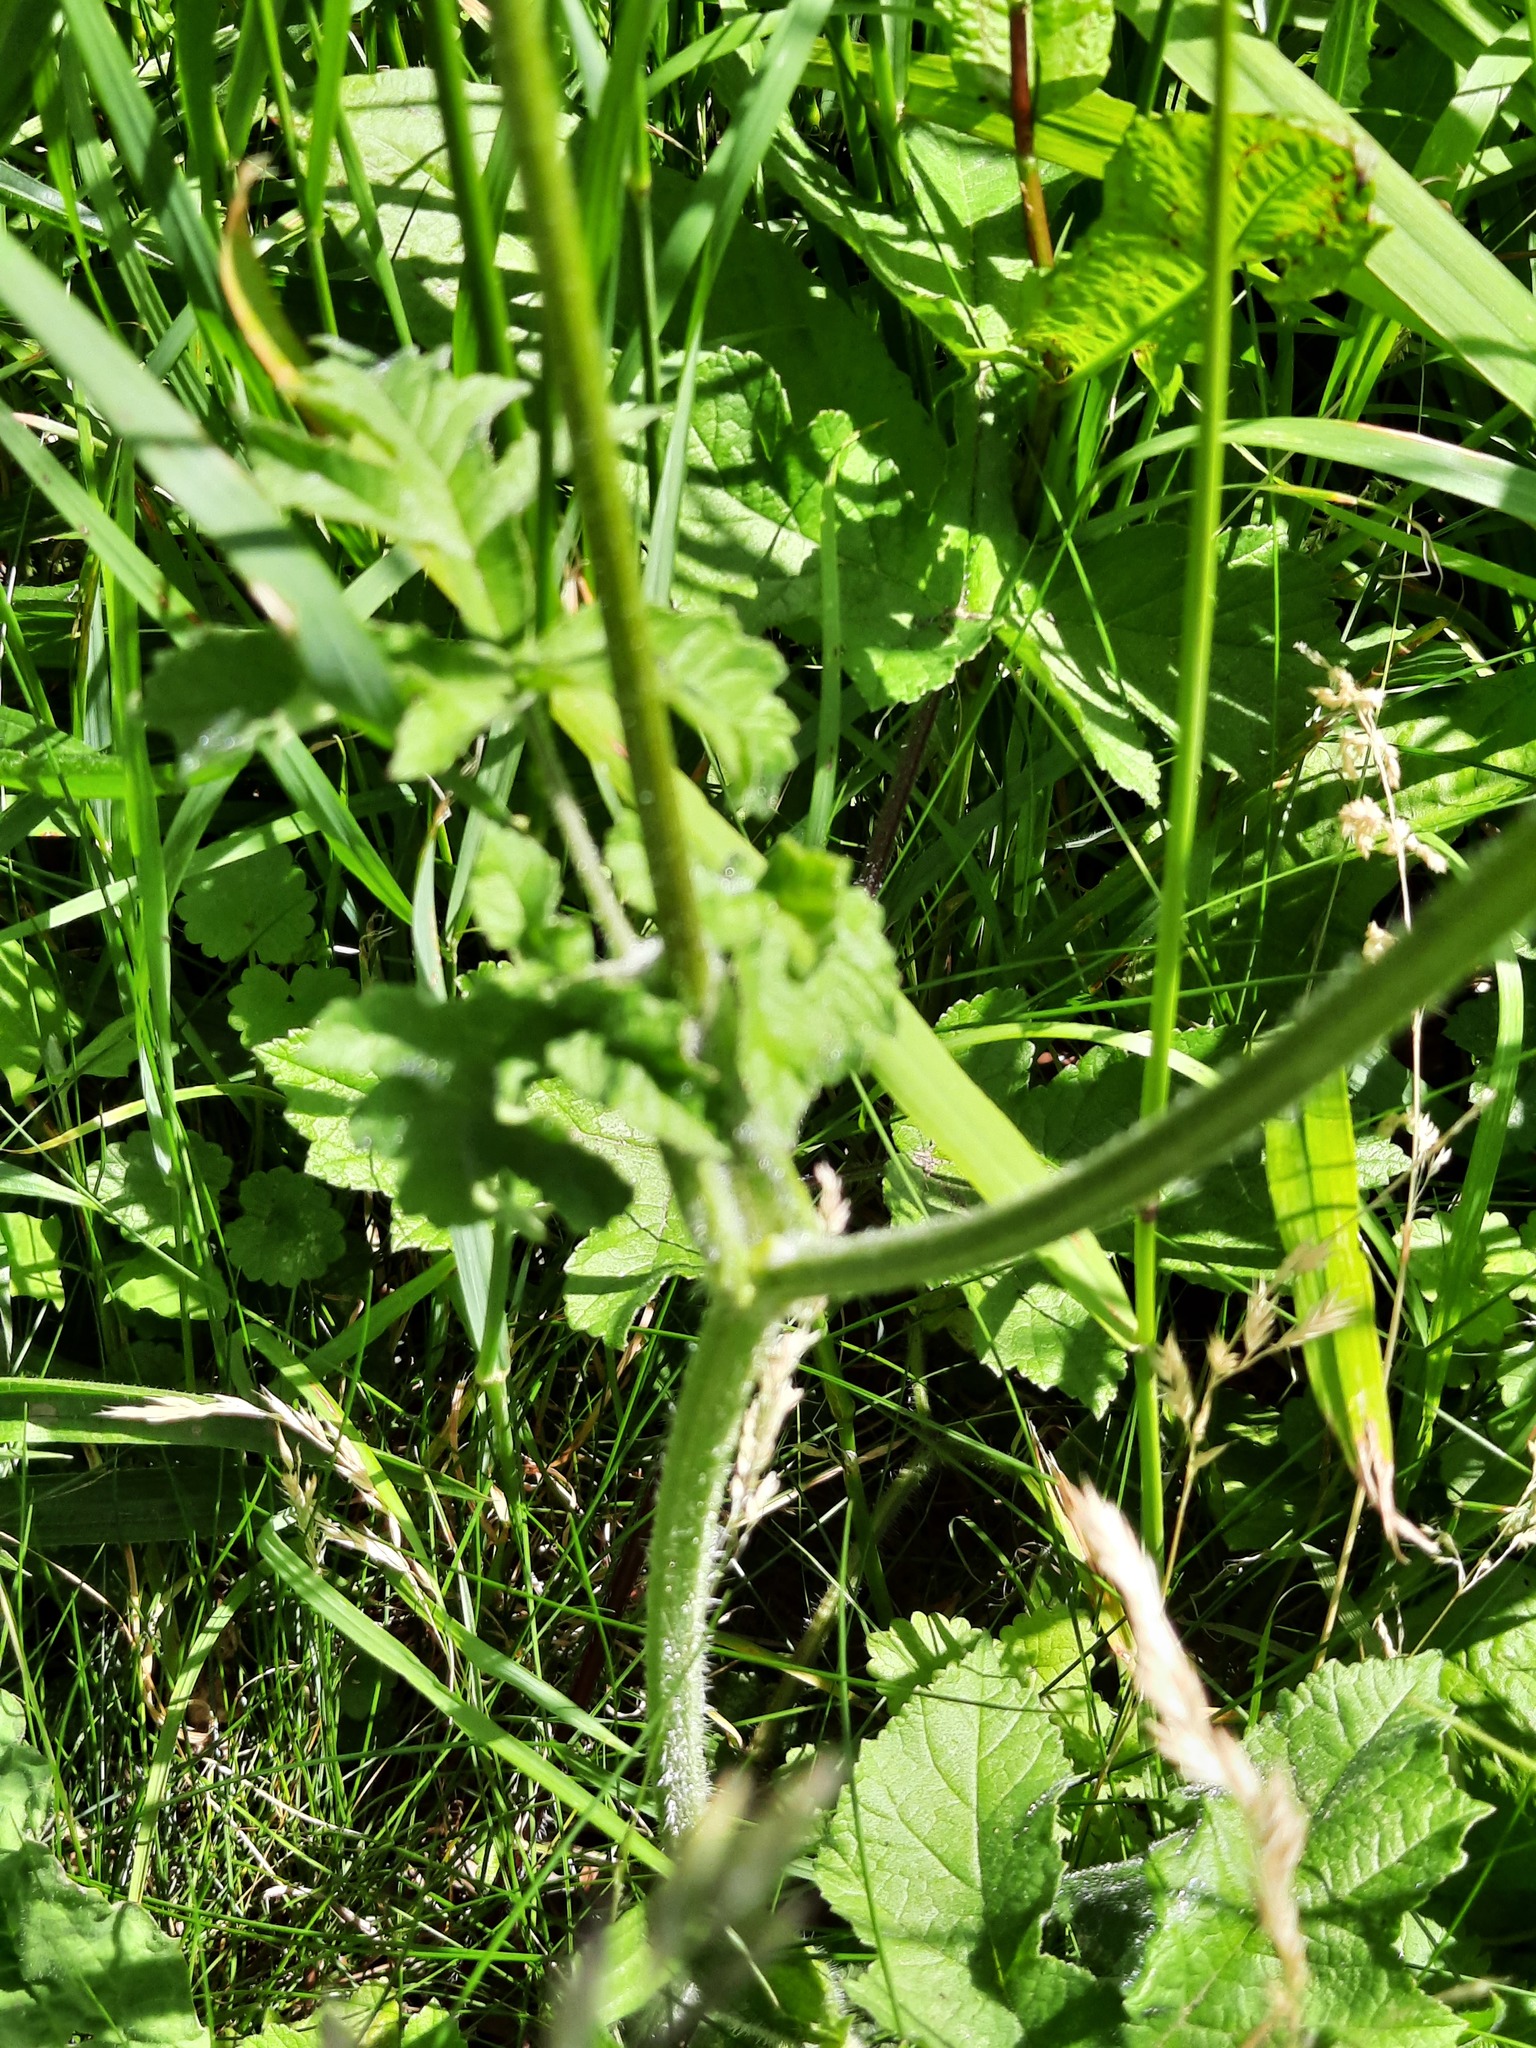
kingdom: Plantae
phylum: Tracheophyta
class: Magnoliopsida
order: Apiales
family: Apiaceae
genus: Anthriscus
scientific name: Anthriscus sylvestris
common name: Cow parsley
